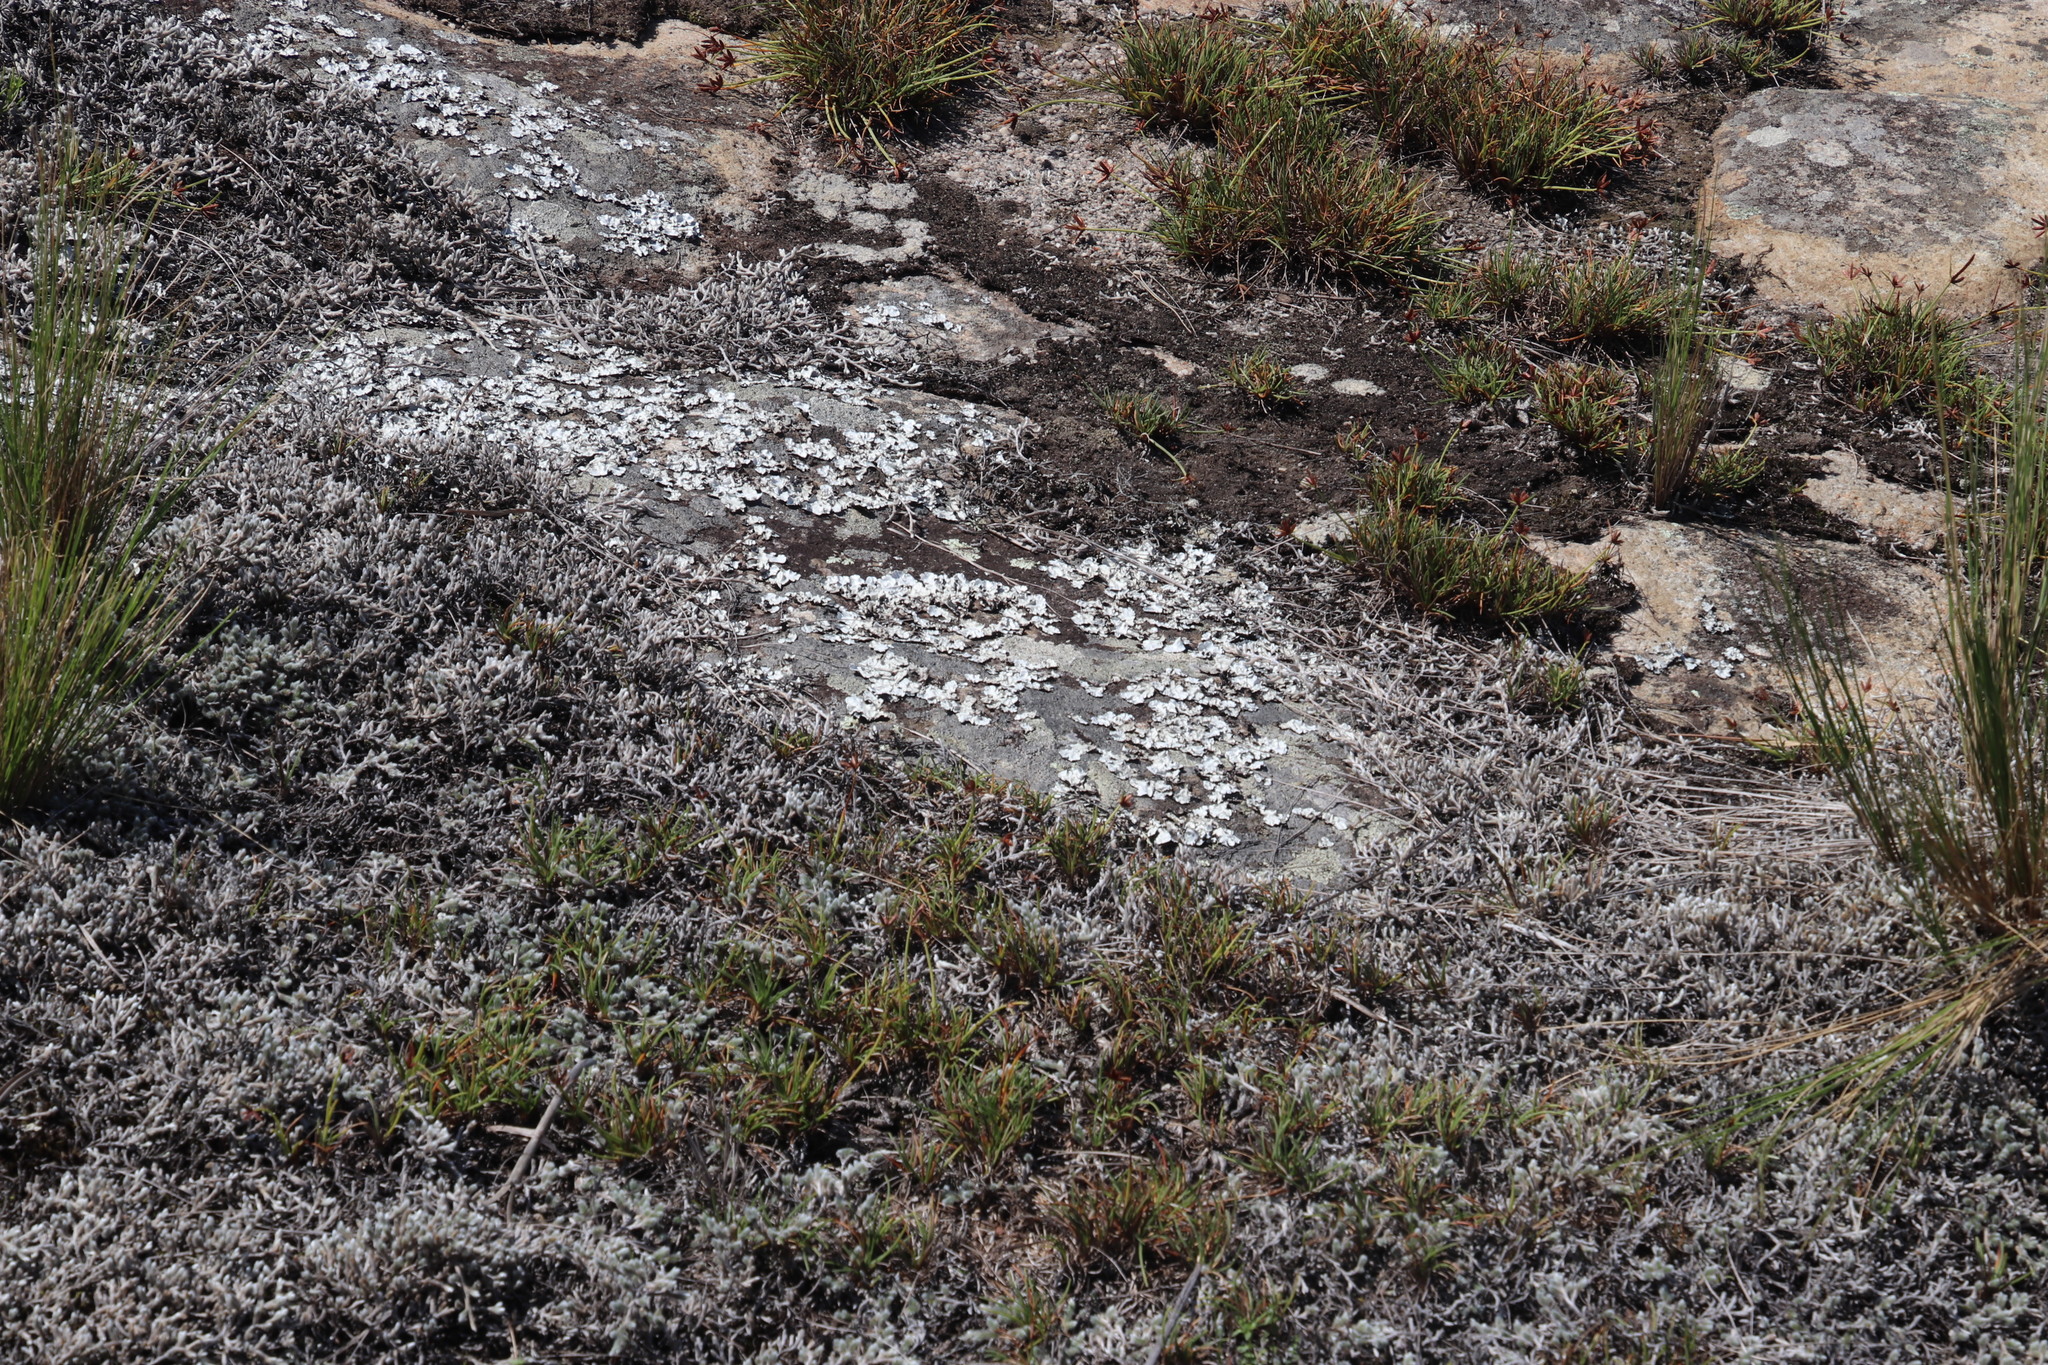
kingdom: Plantae
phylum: Tracheophyta
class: Lycopodiopsida
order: Selaginellales
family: Selaginellaceae
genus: Selaginella
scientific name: Selaginella dregei
